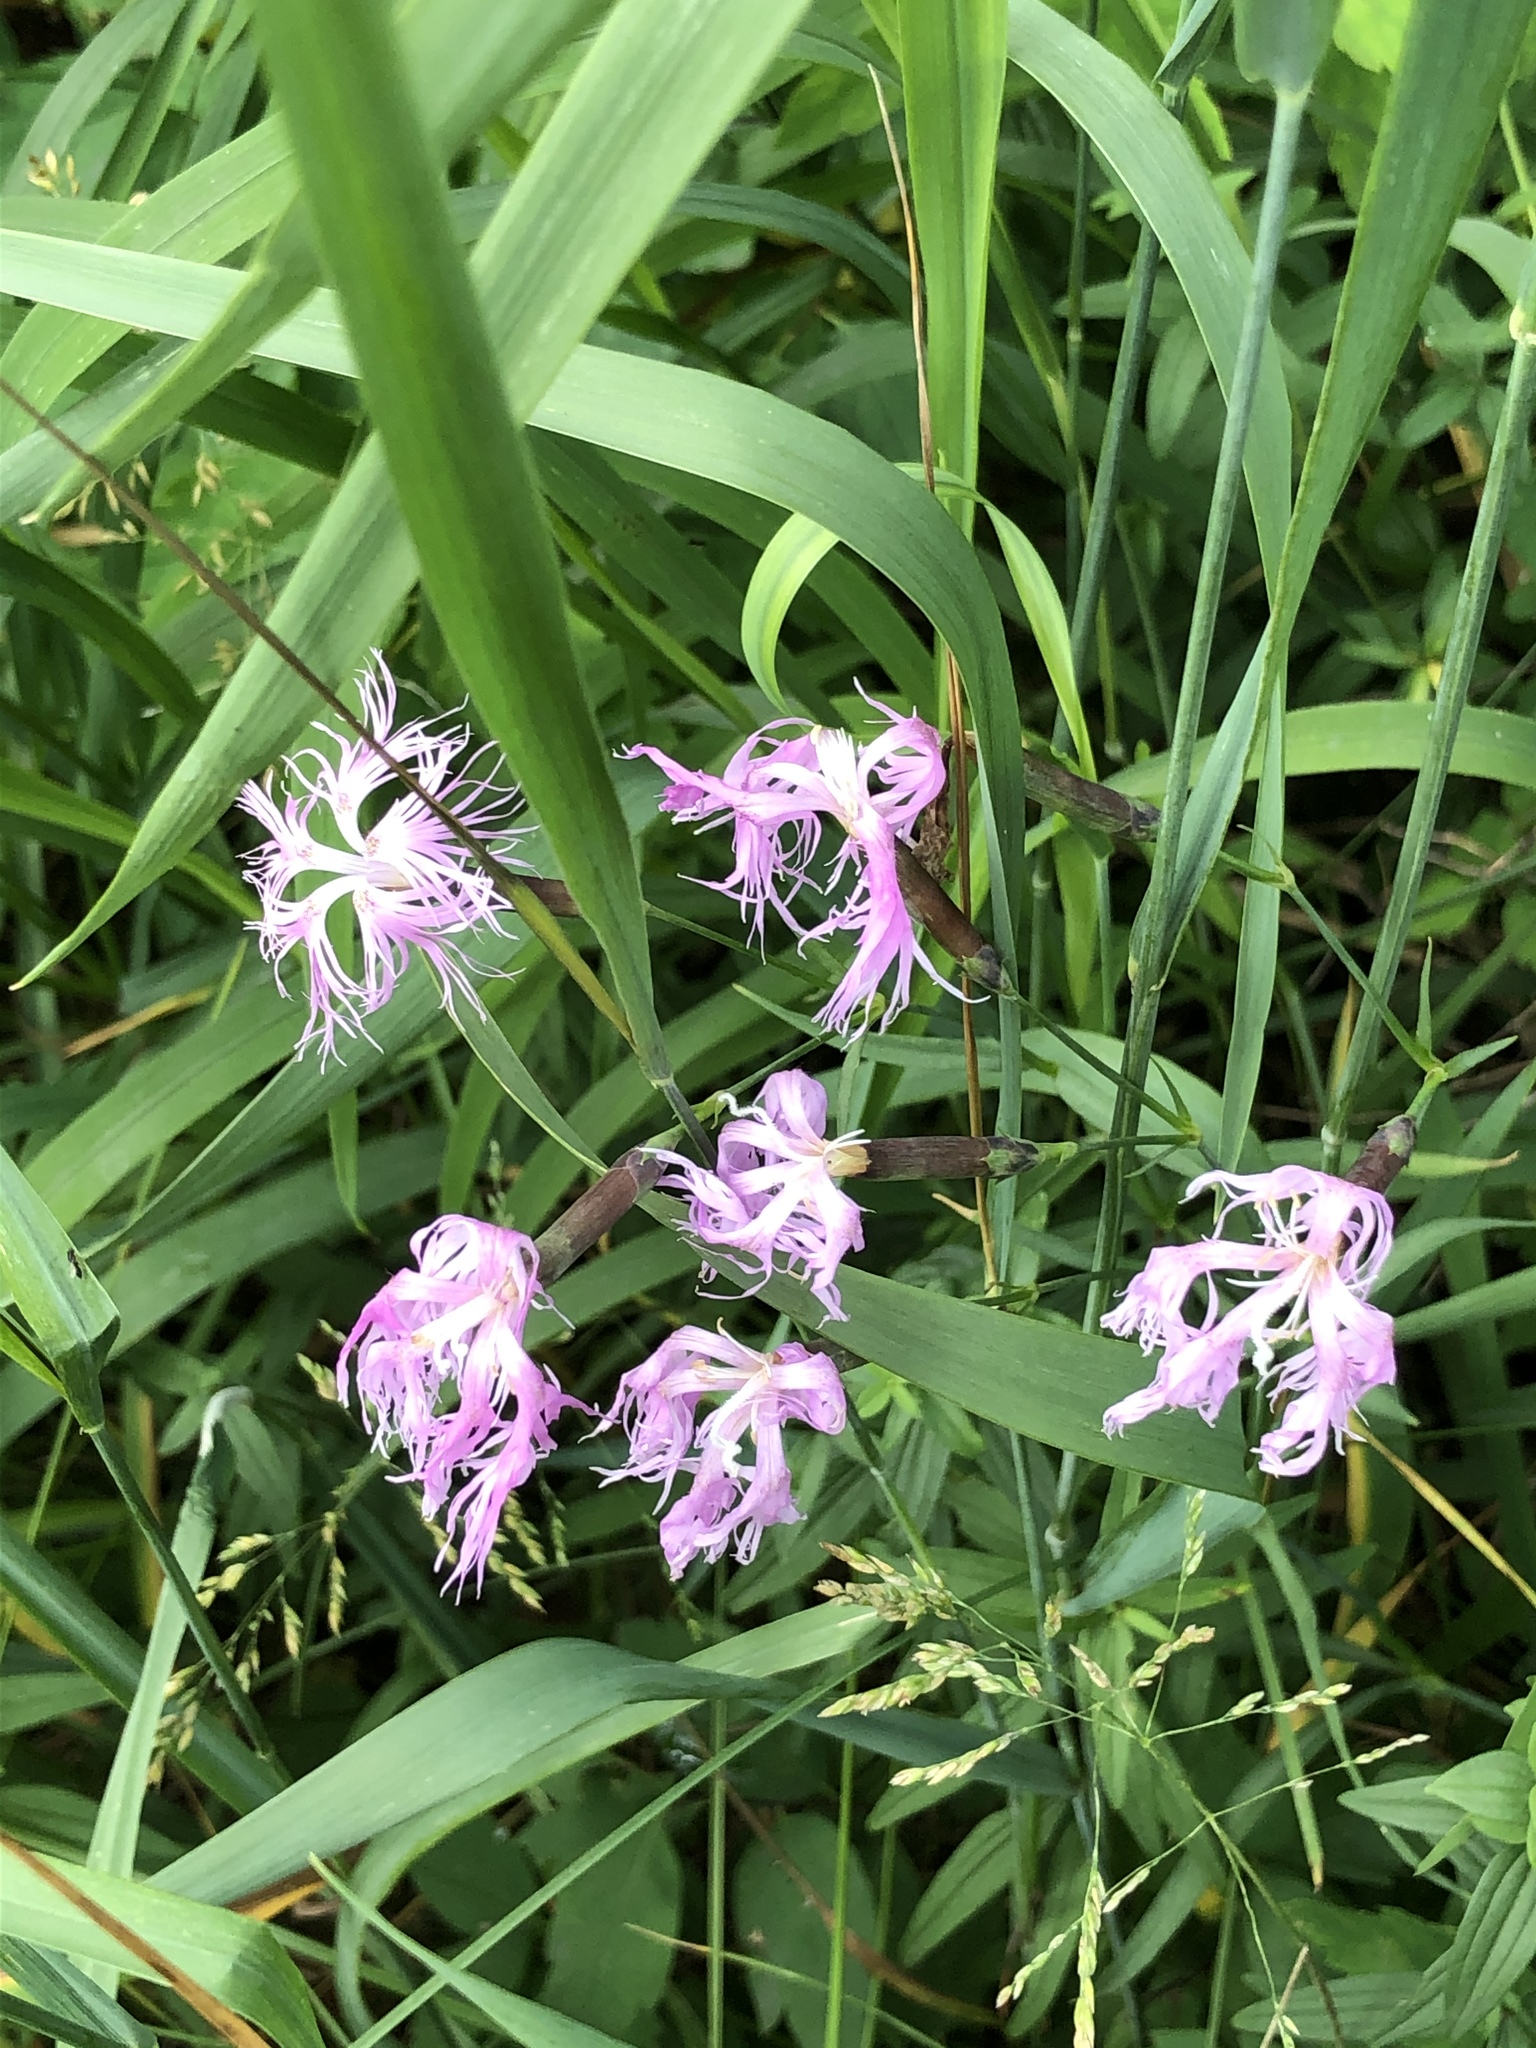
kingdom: Plantae
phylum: Tracheophyta
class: Magnoliopsida
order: Caryophyllales
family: Caryophyllaceae
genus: Dianthus
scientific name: Dianthus superbus
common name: Fringed pink
